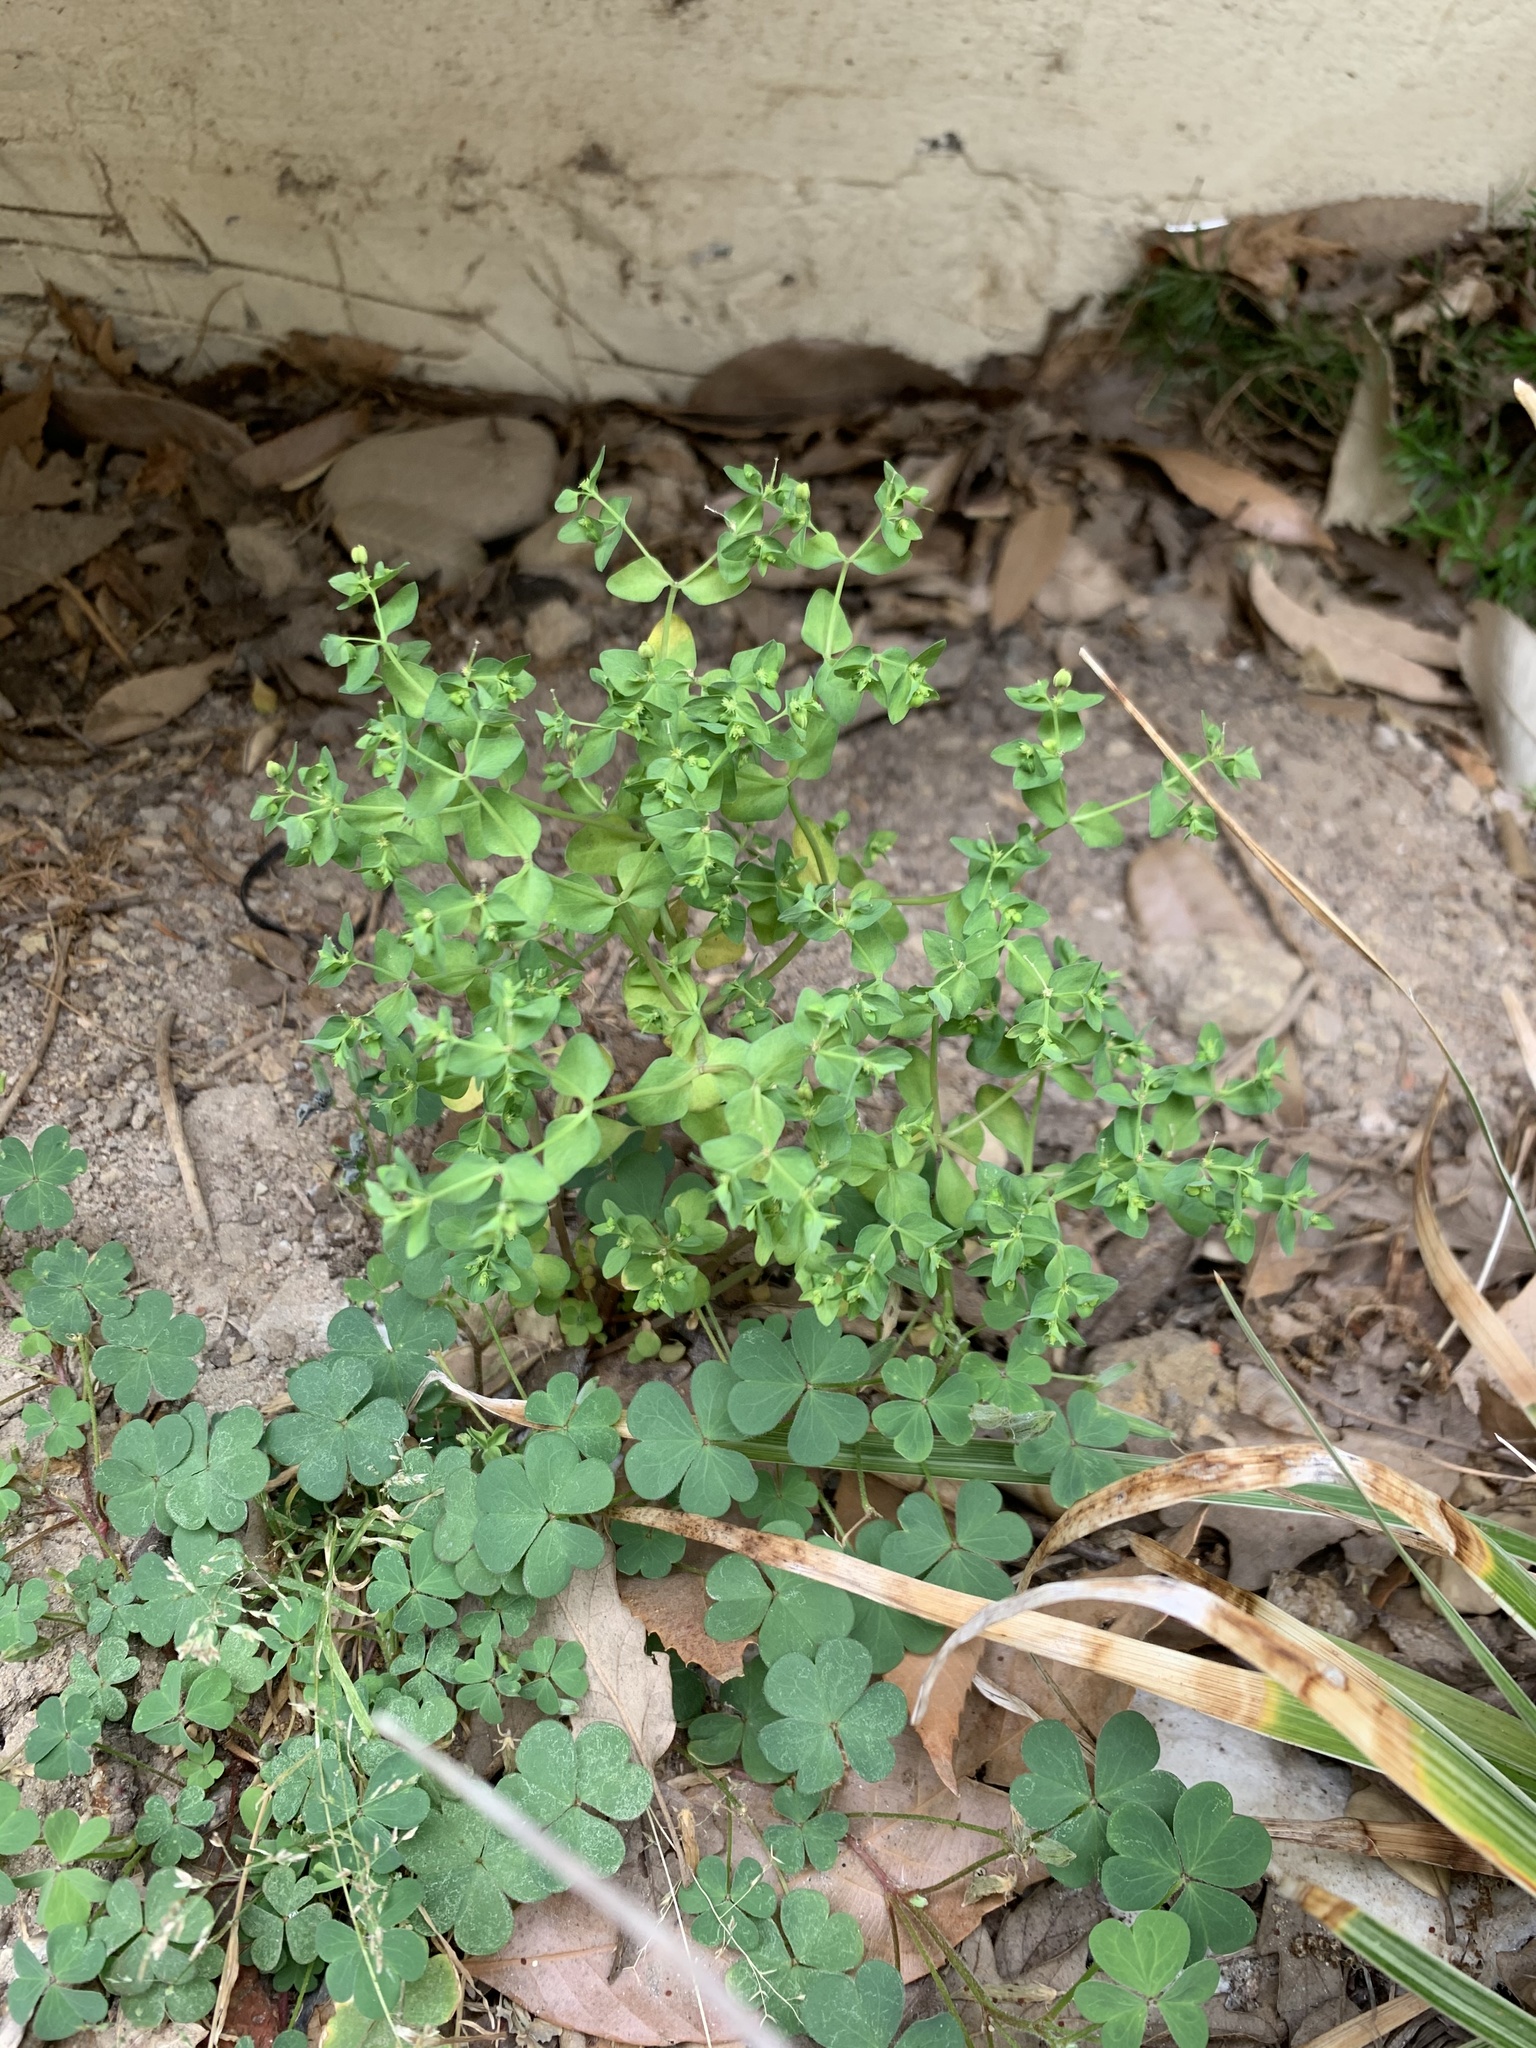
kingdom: Plantae
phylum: Tracheophyta
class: Magnoliopsida
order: Malpighiales
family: Euphorbiaceae
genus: Euphorbia
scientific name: Euphorbia peplus
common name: Petty spurge
